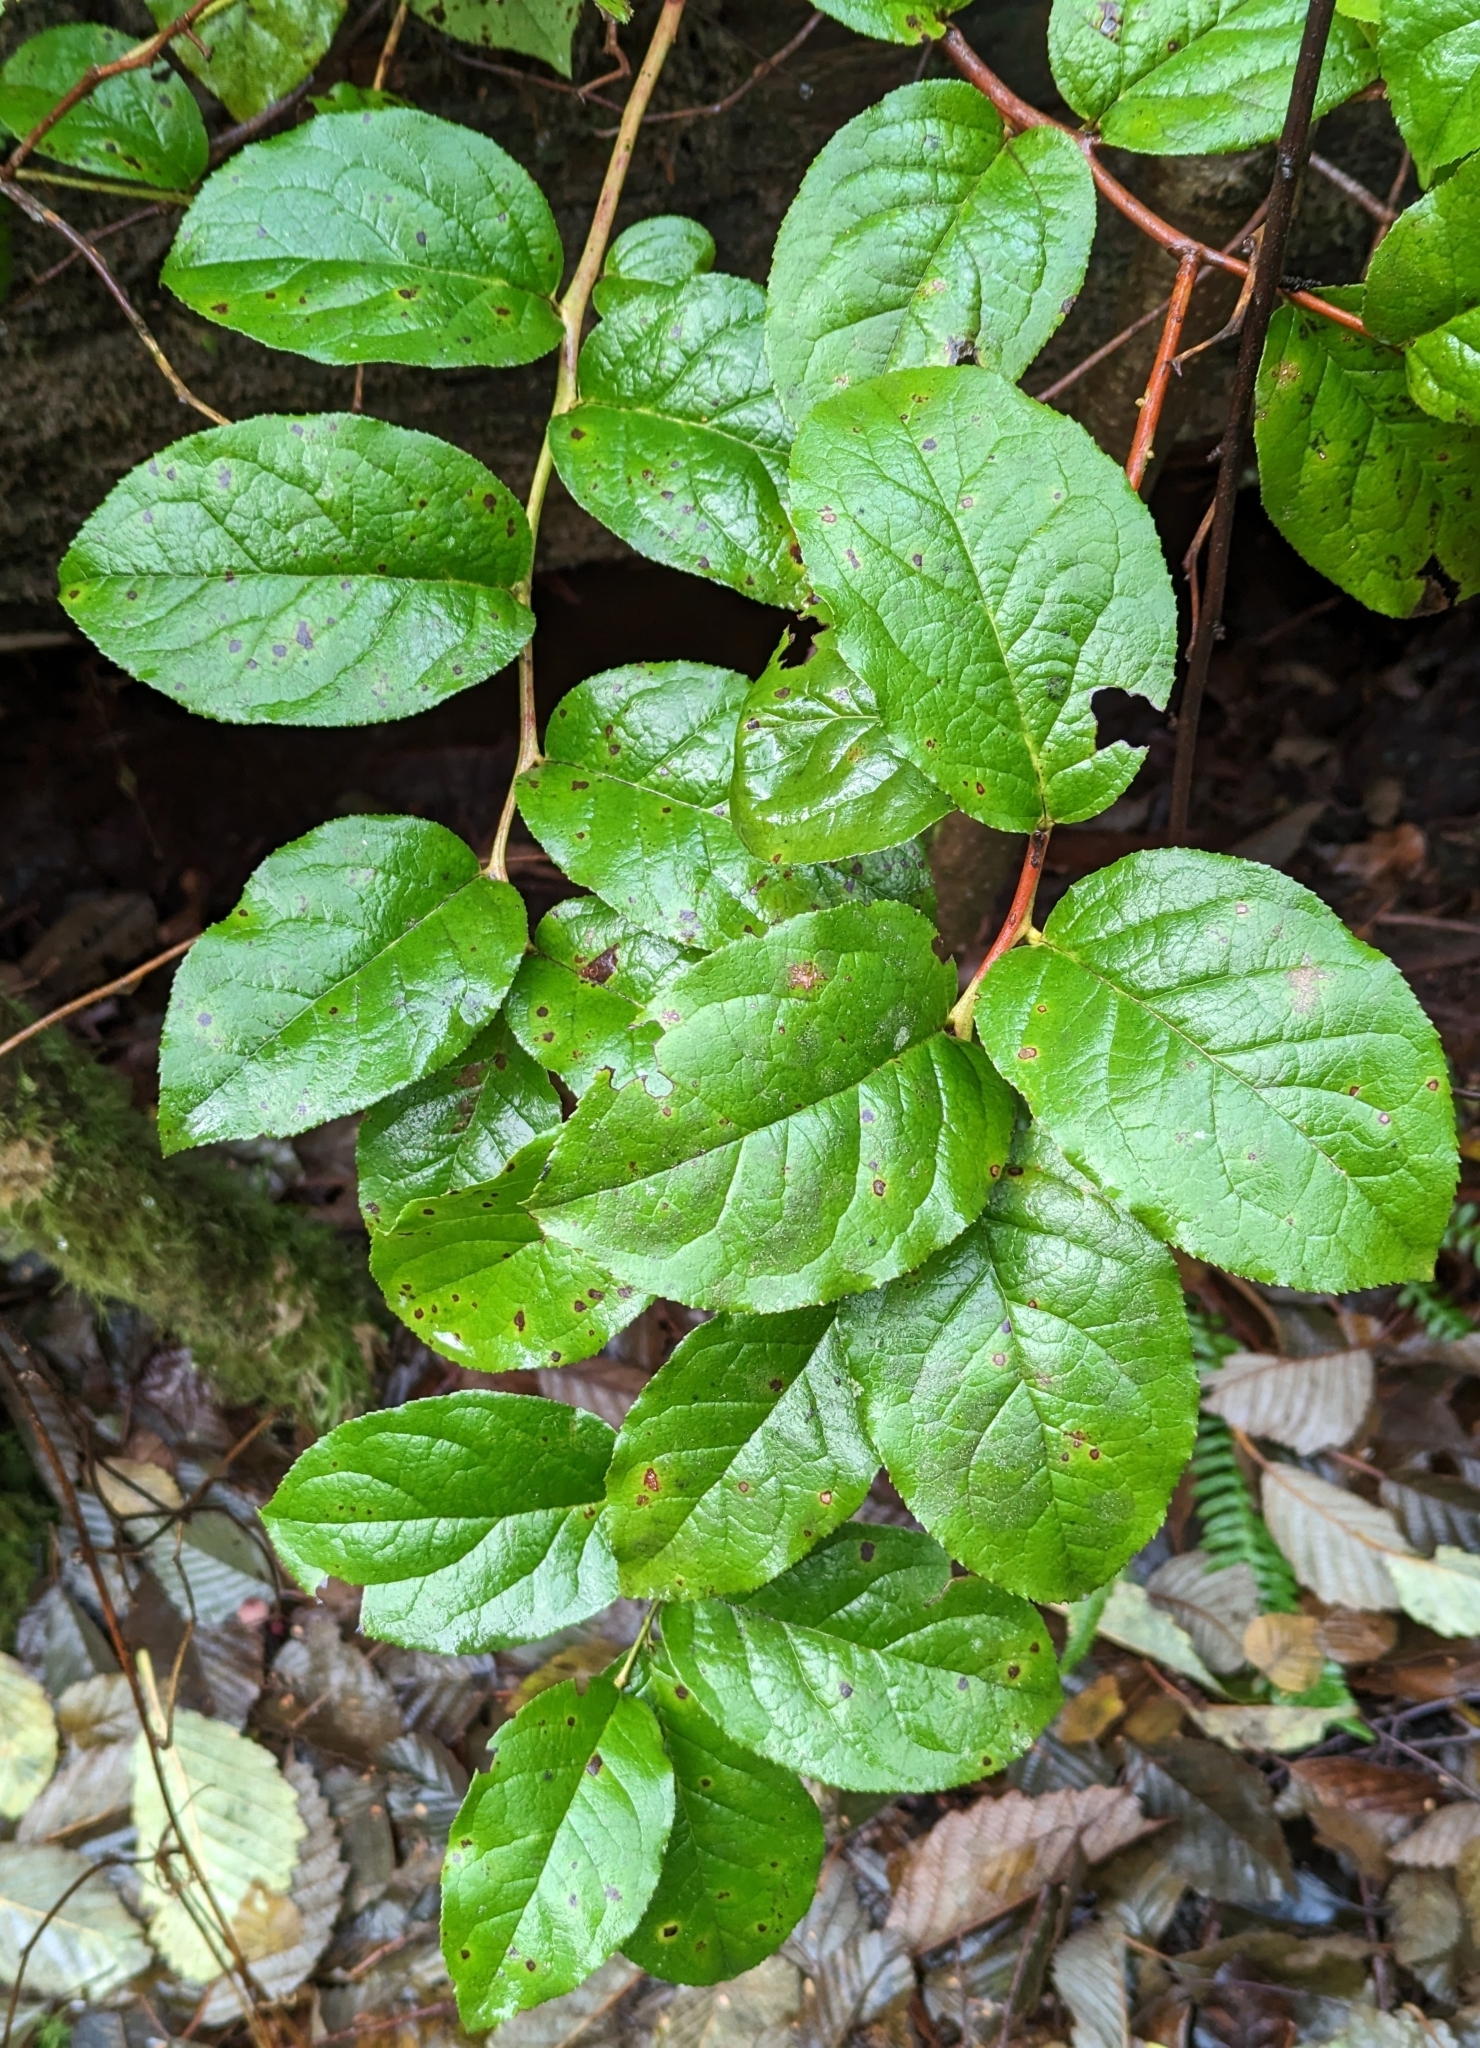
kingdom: Plantae
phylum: Tracheophyta
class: Magnoliopsida
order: Ericales
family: Ericaceae
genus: Gaultheria
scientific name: Gaultheria shallon
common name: Shallon
